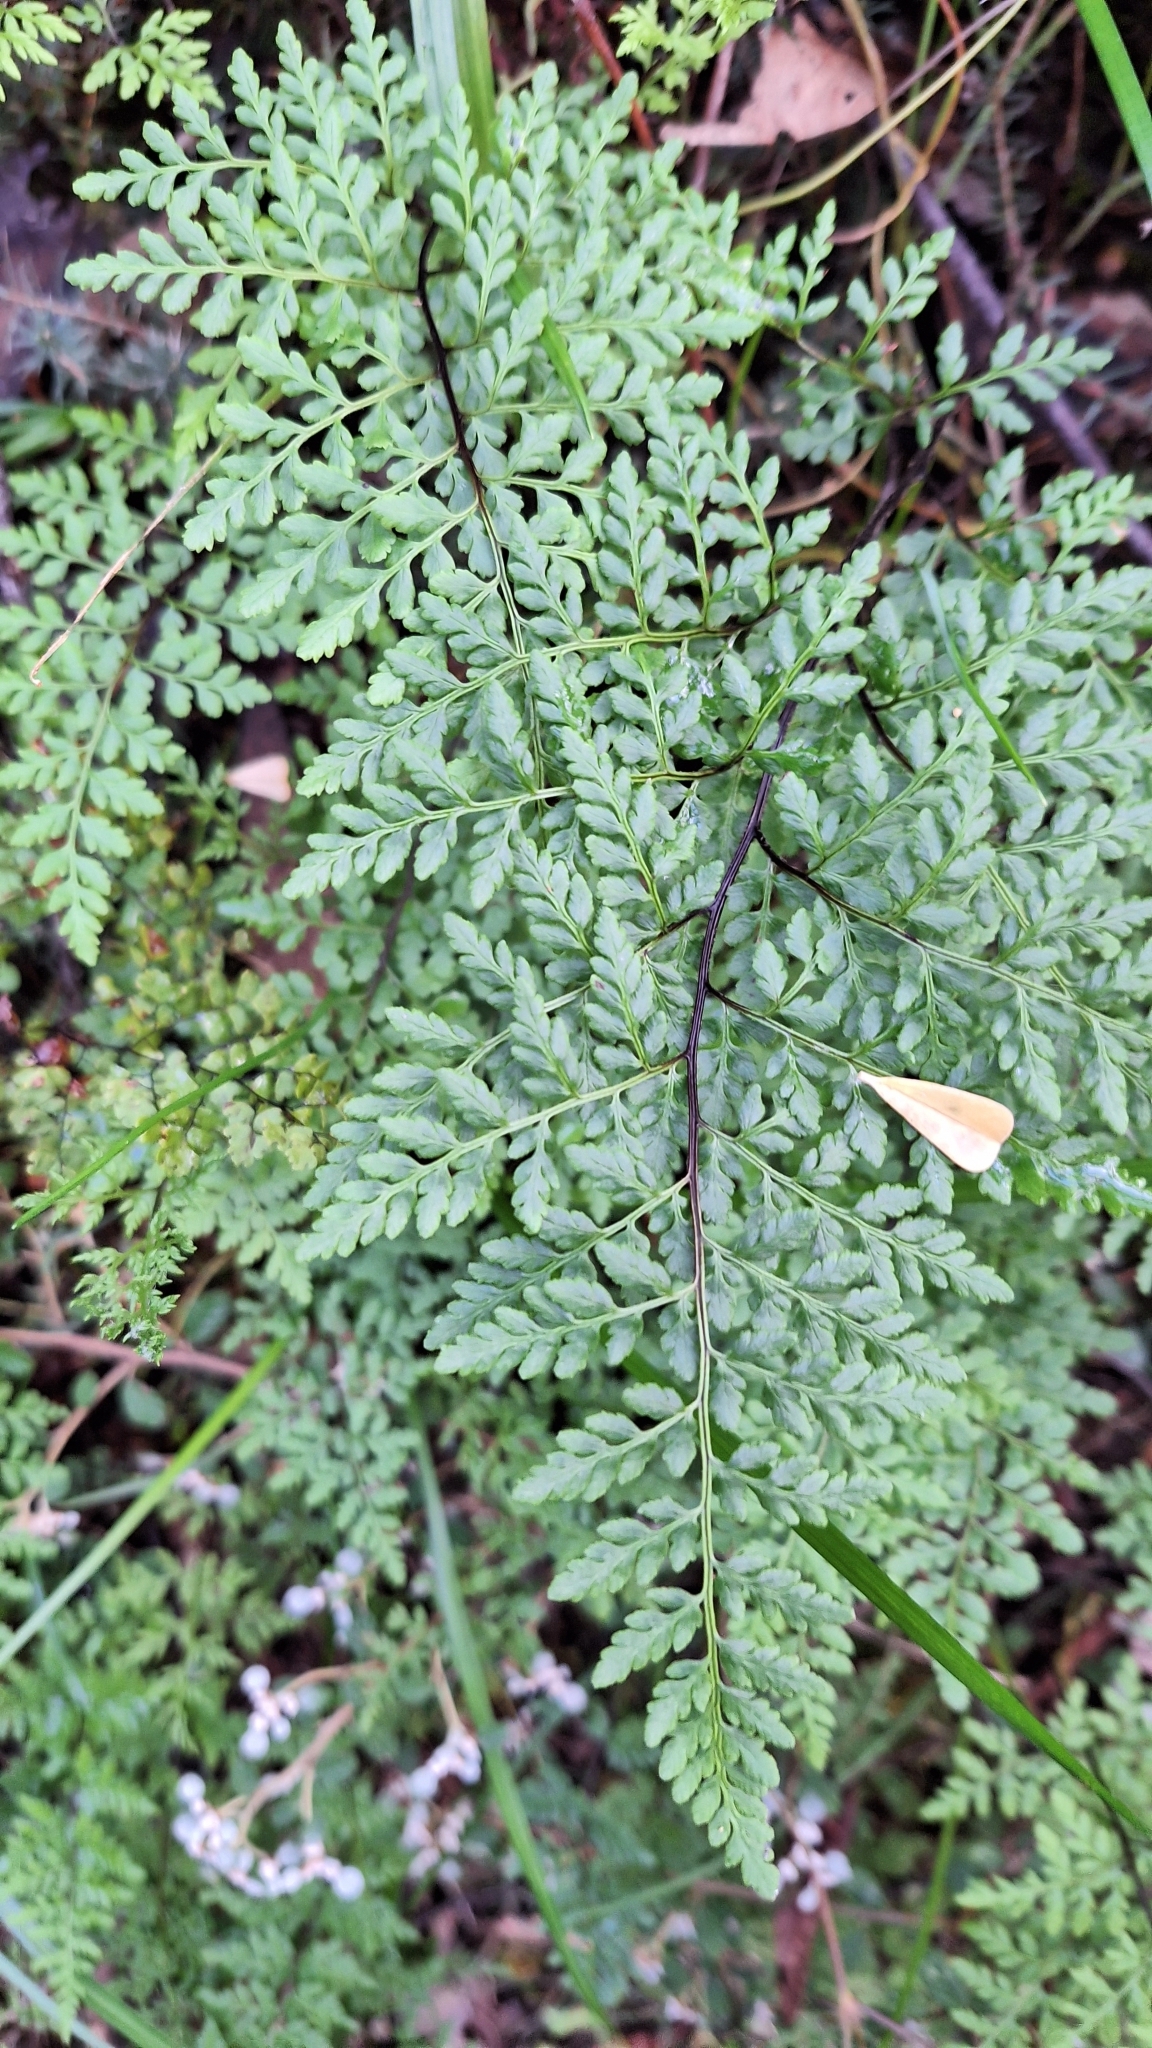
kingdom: Plantae
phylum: Tracheophyta
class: Polypodiopsida
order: Polypodiales
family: Pteridaceae
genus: Cheilanthes
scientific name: Cheilanthes austrotenuifolia
